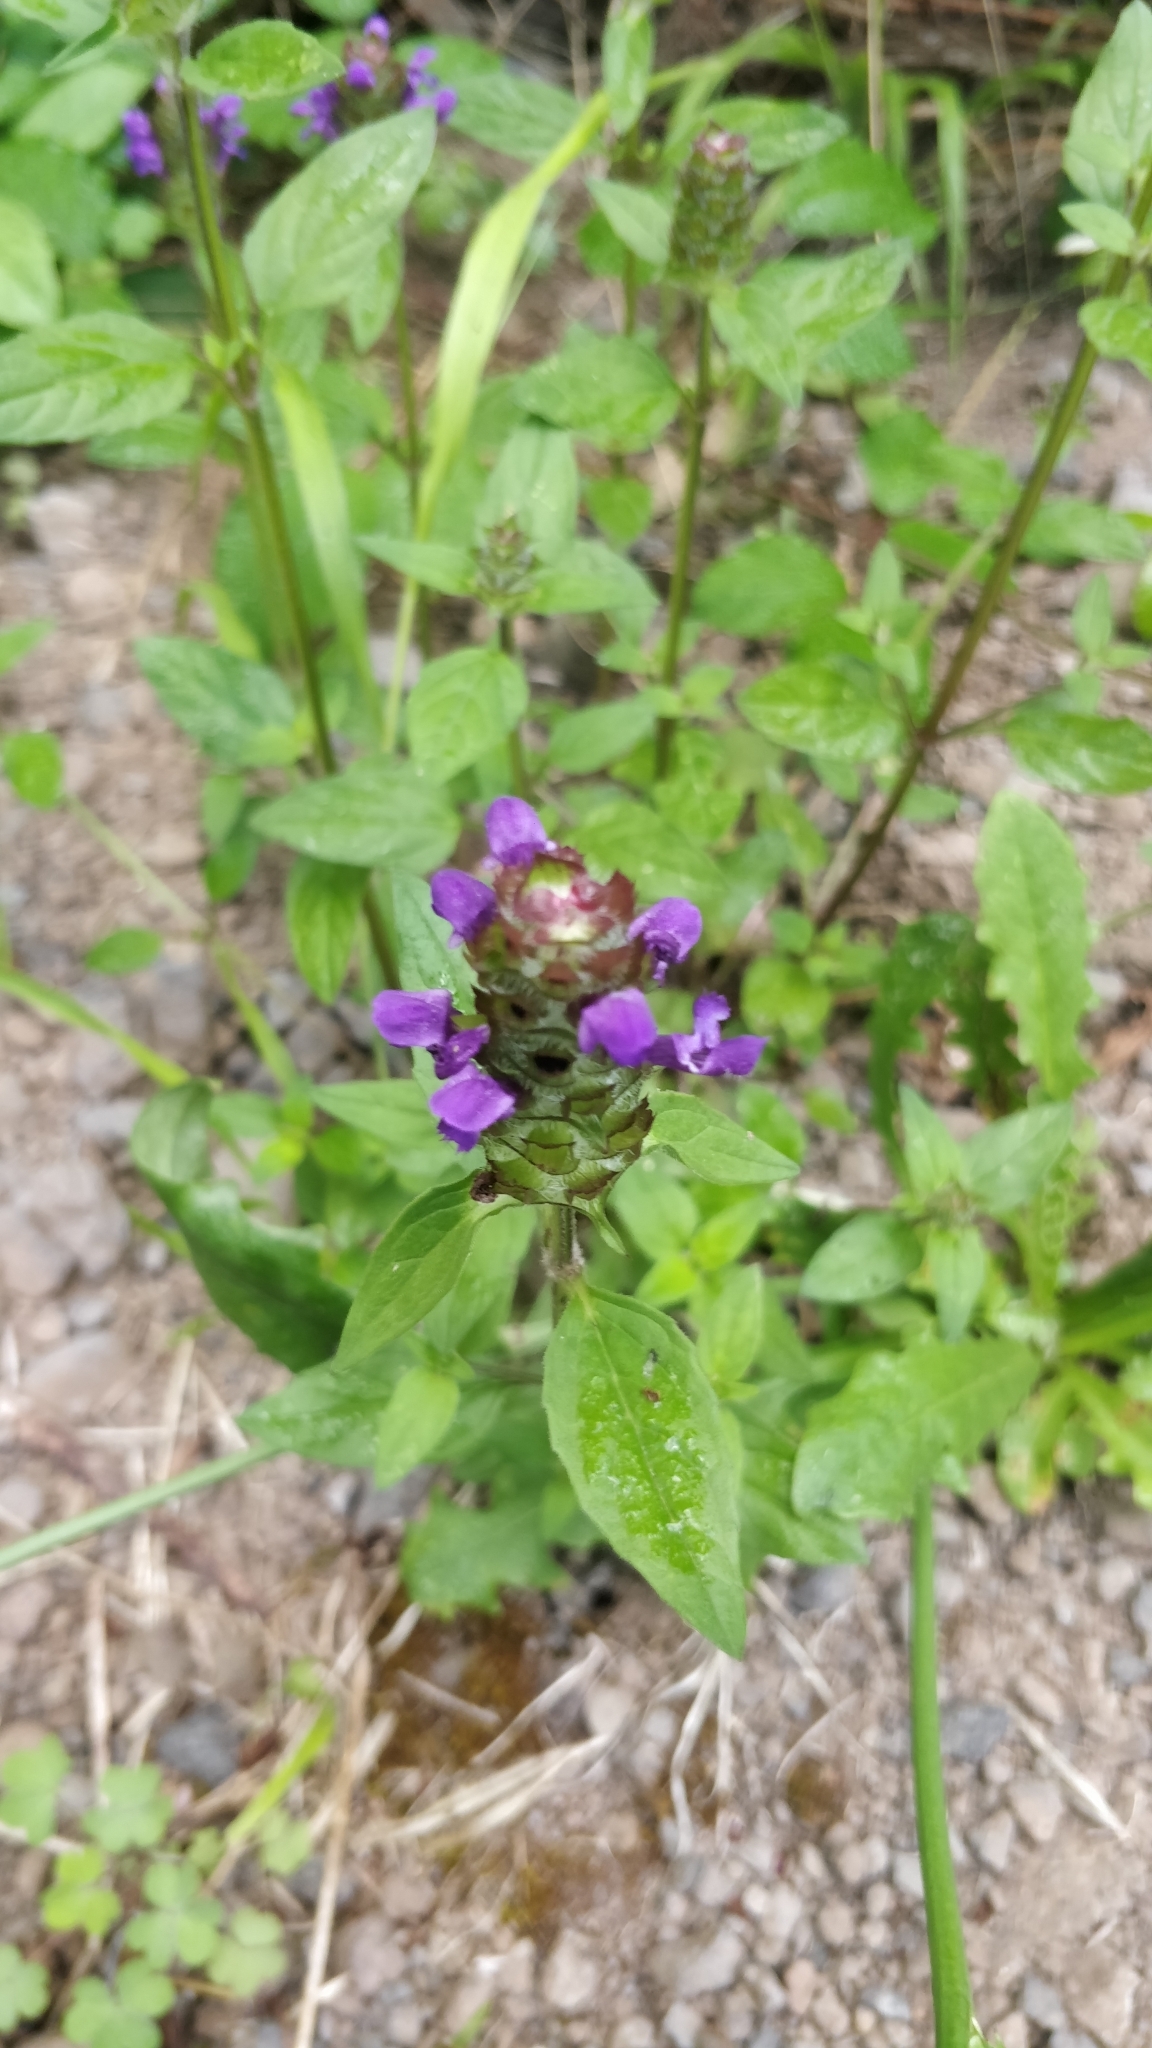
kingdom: Plantae
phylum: Tracheophyta
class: Magnoliopsida
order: Lamiales
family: Lamiaceae
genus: Prunella
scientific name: Prunella vulgaris
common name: Heal-all
